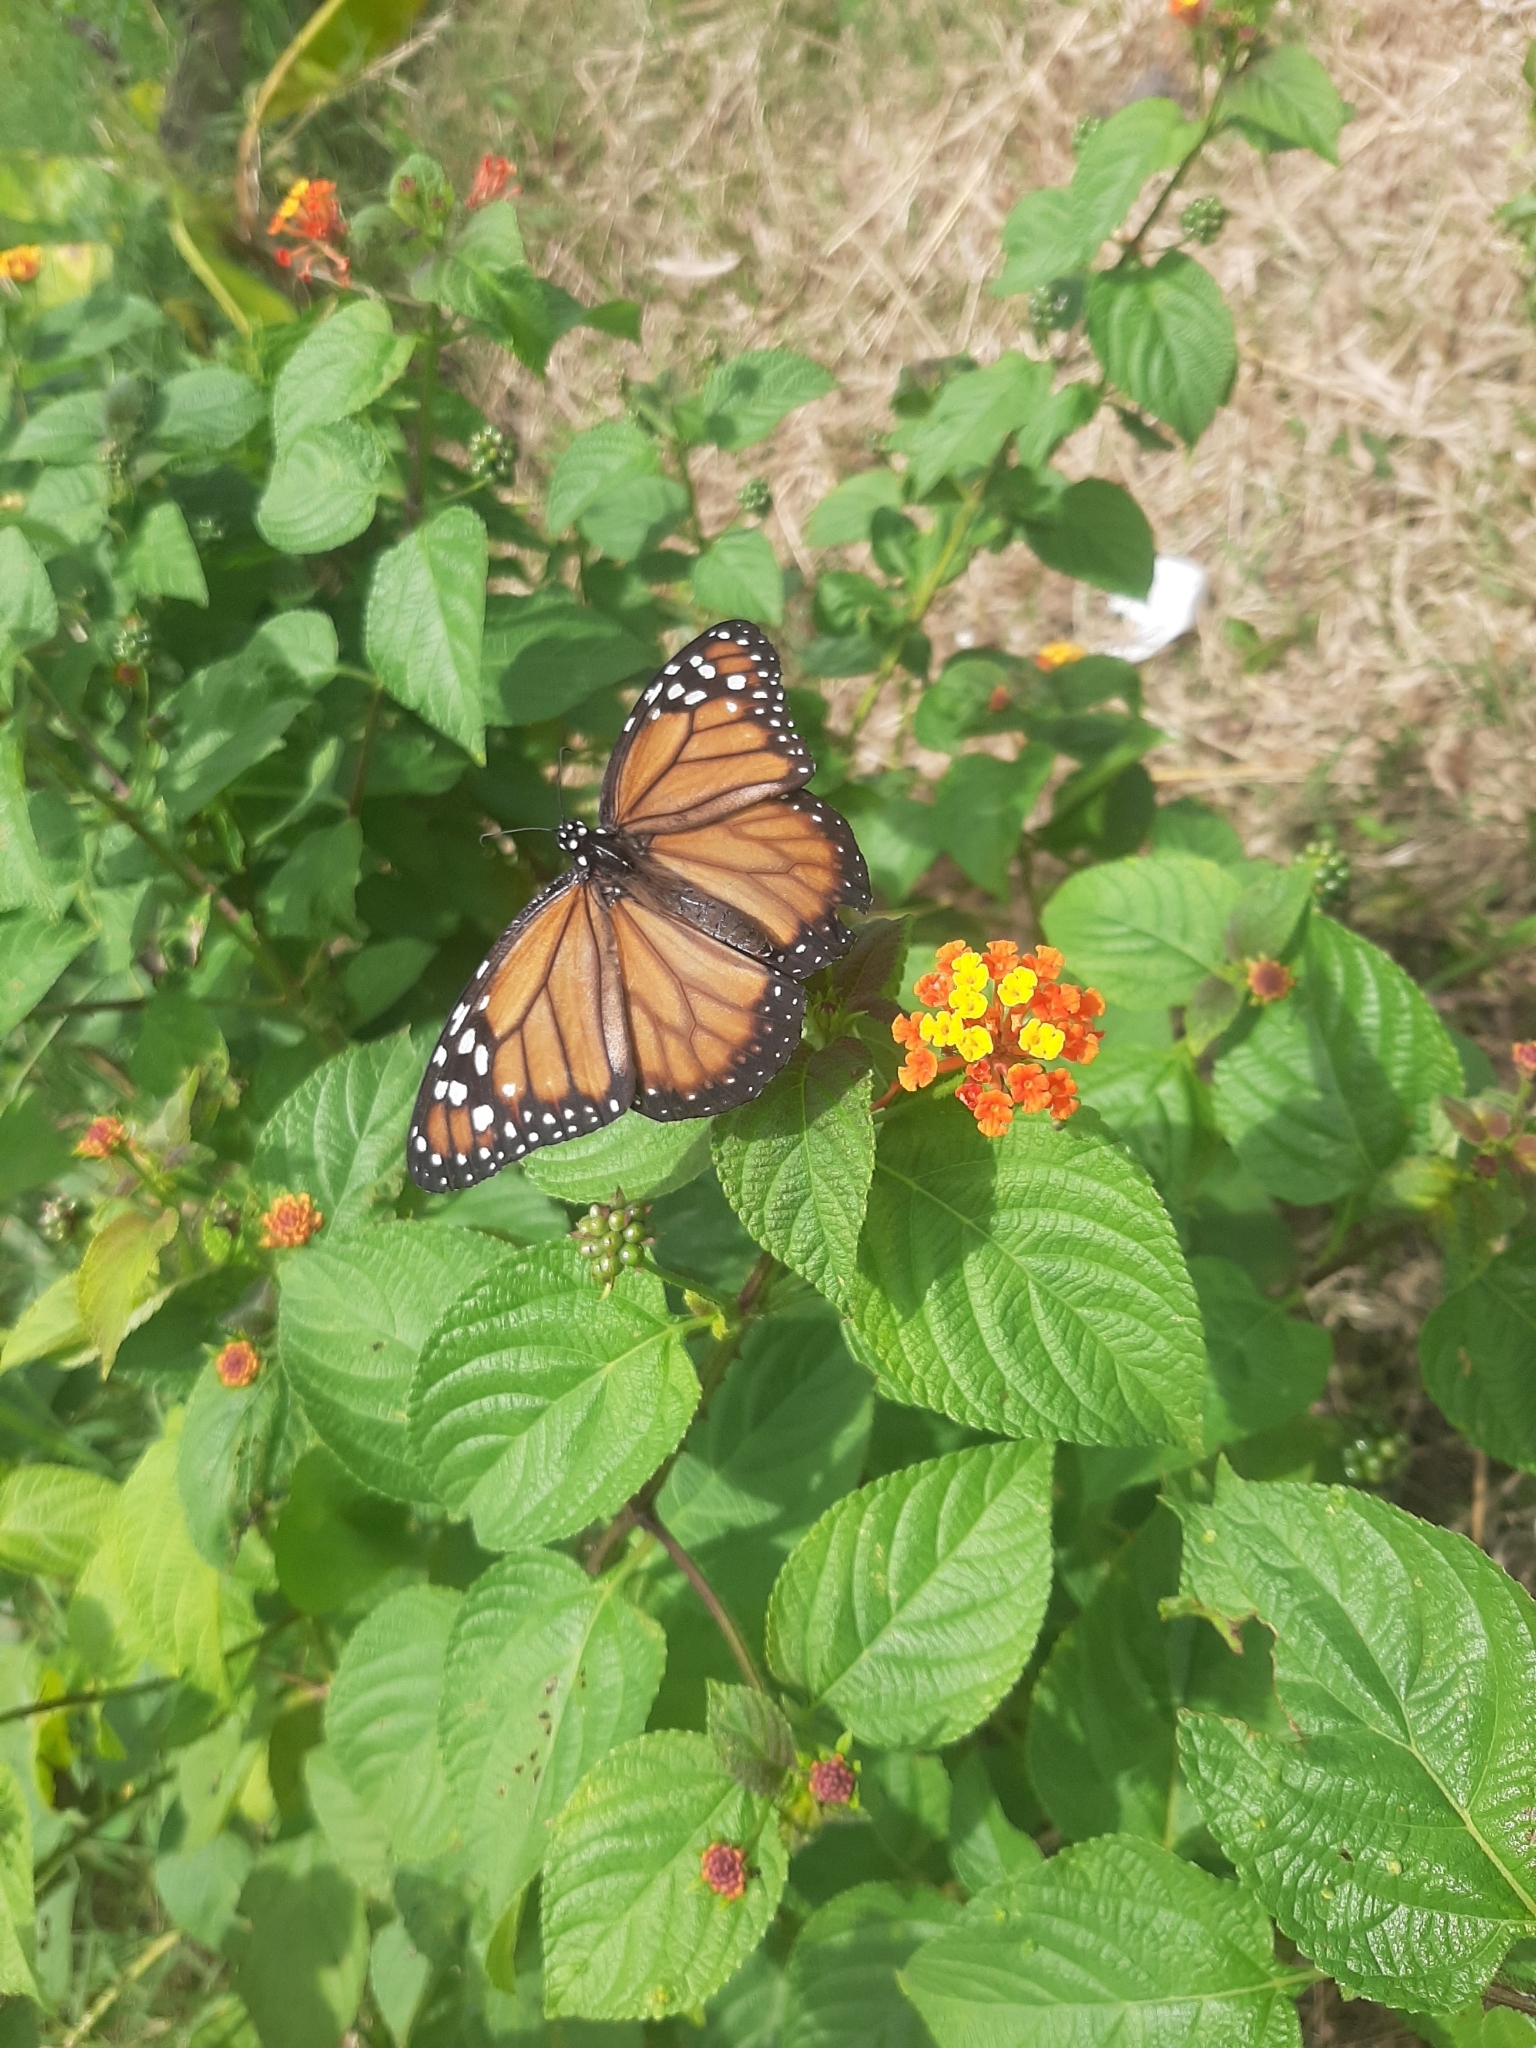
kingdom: Animalia
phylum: Arthropoda
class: Insecta
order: Lepidoptera
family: Nymphalidae
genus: Danaus
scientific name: Danaus erippus
